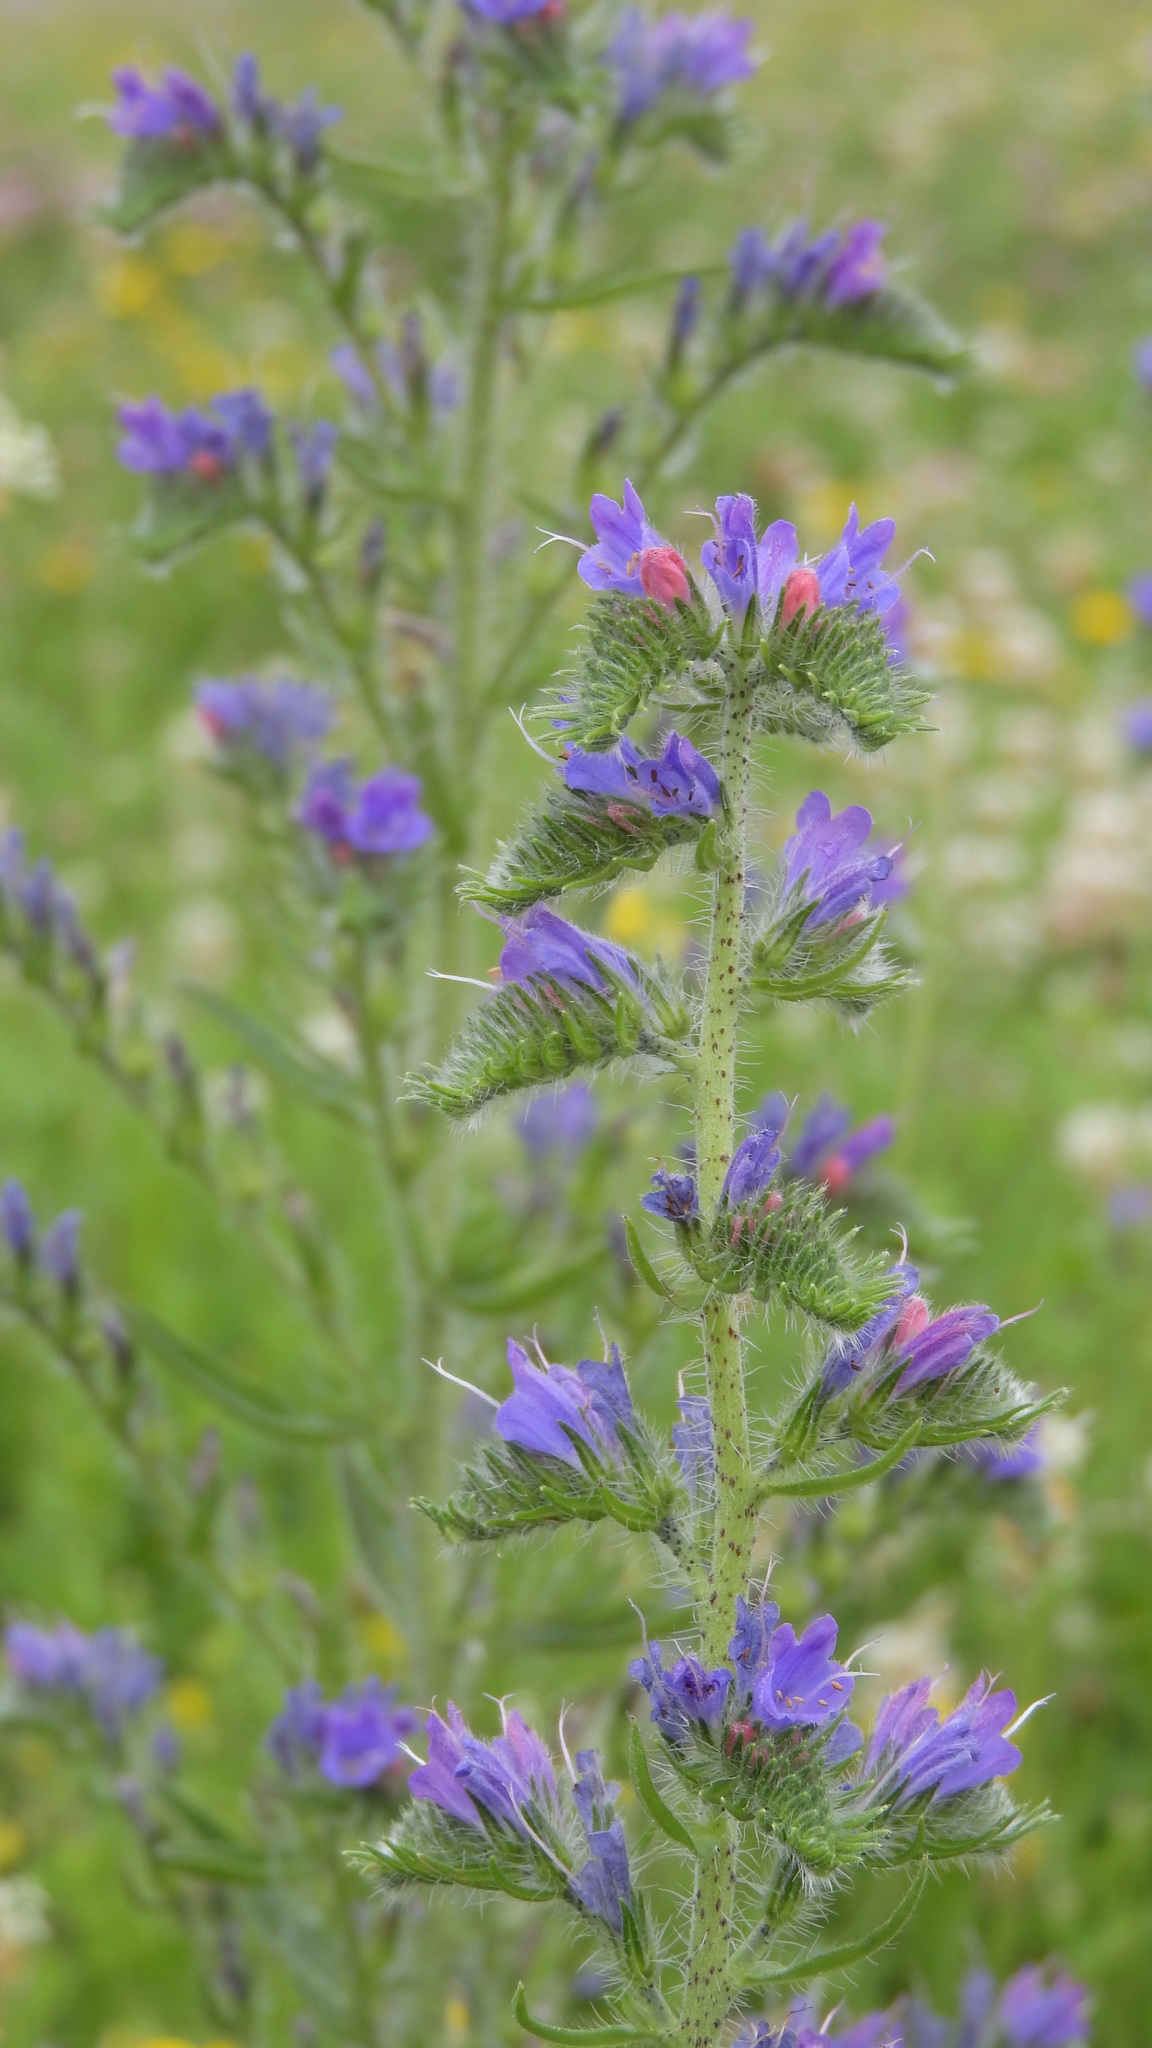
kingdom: Plantae
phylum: Tracheophyta
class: Magnoliopsida
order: Boraginales
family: Boraginaceae
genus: Echium
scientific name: Echium vulgare
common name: Common viper's bugloss
